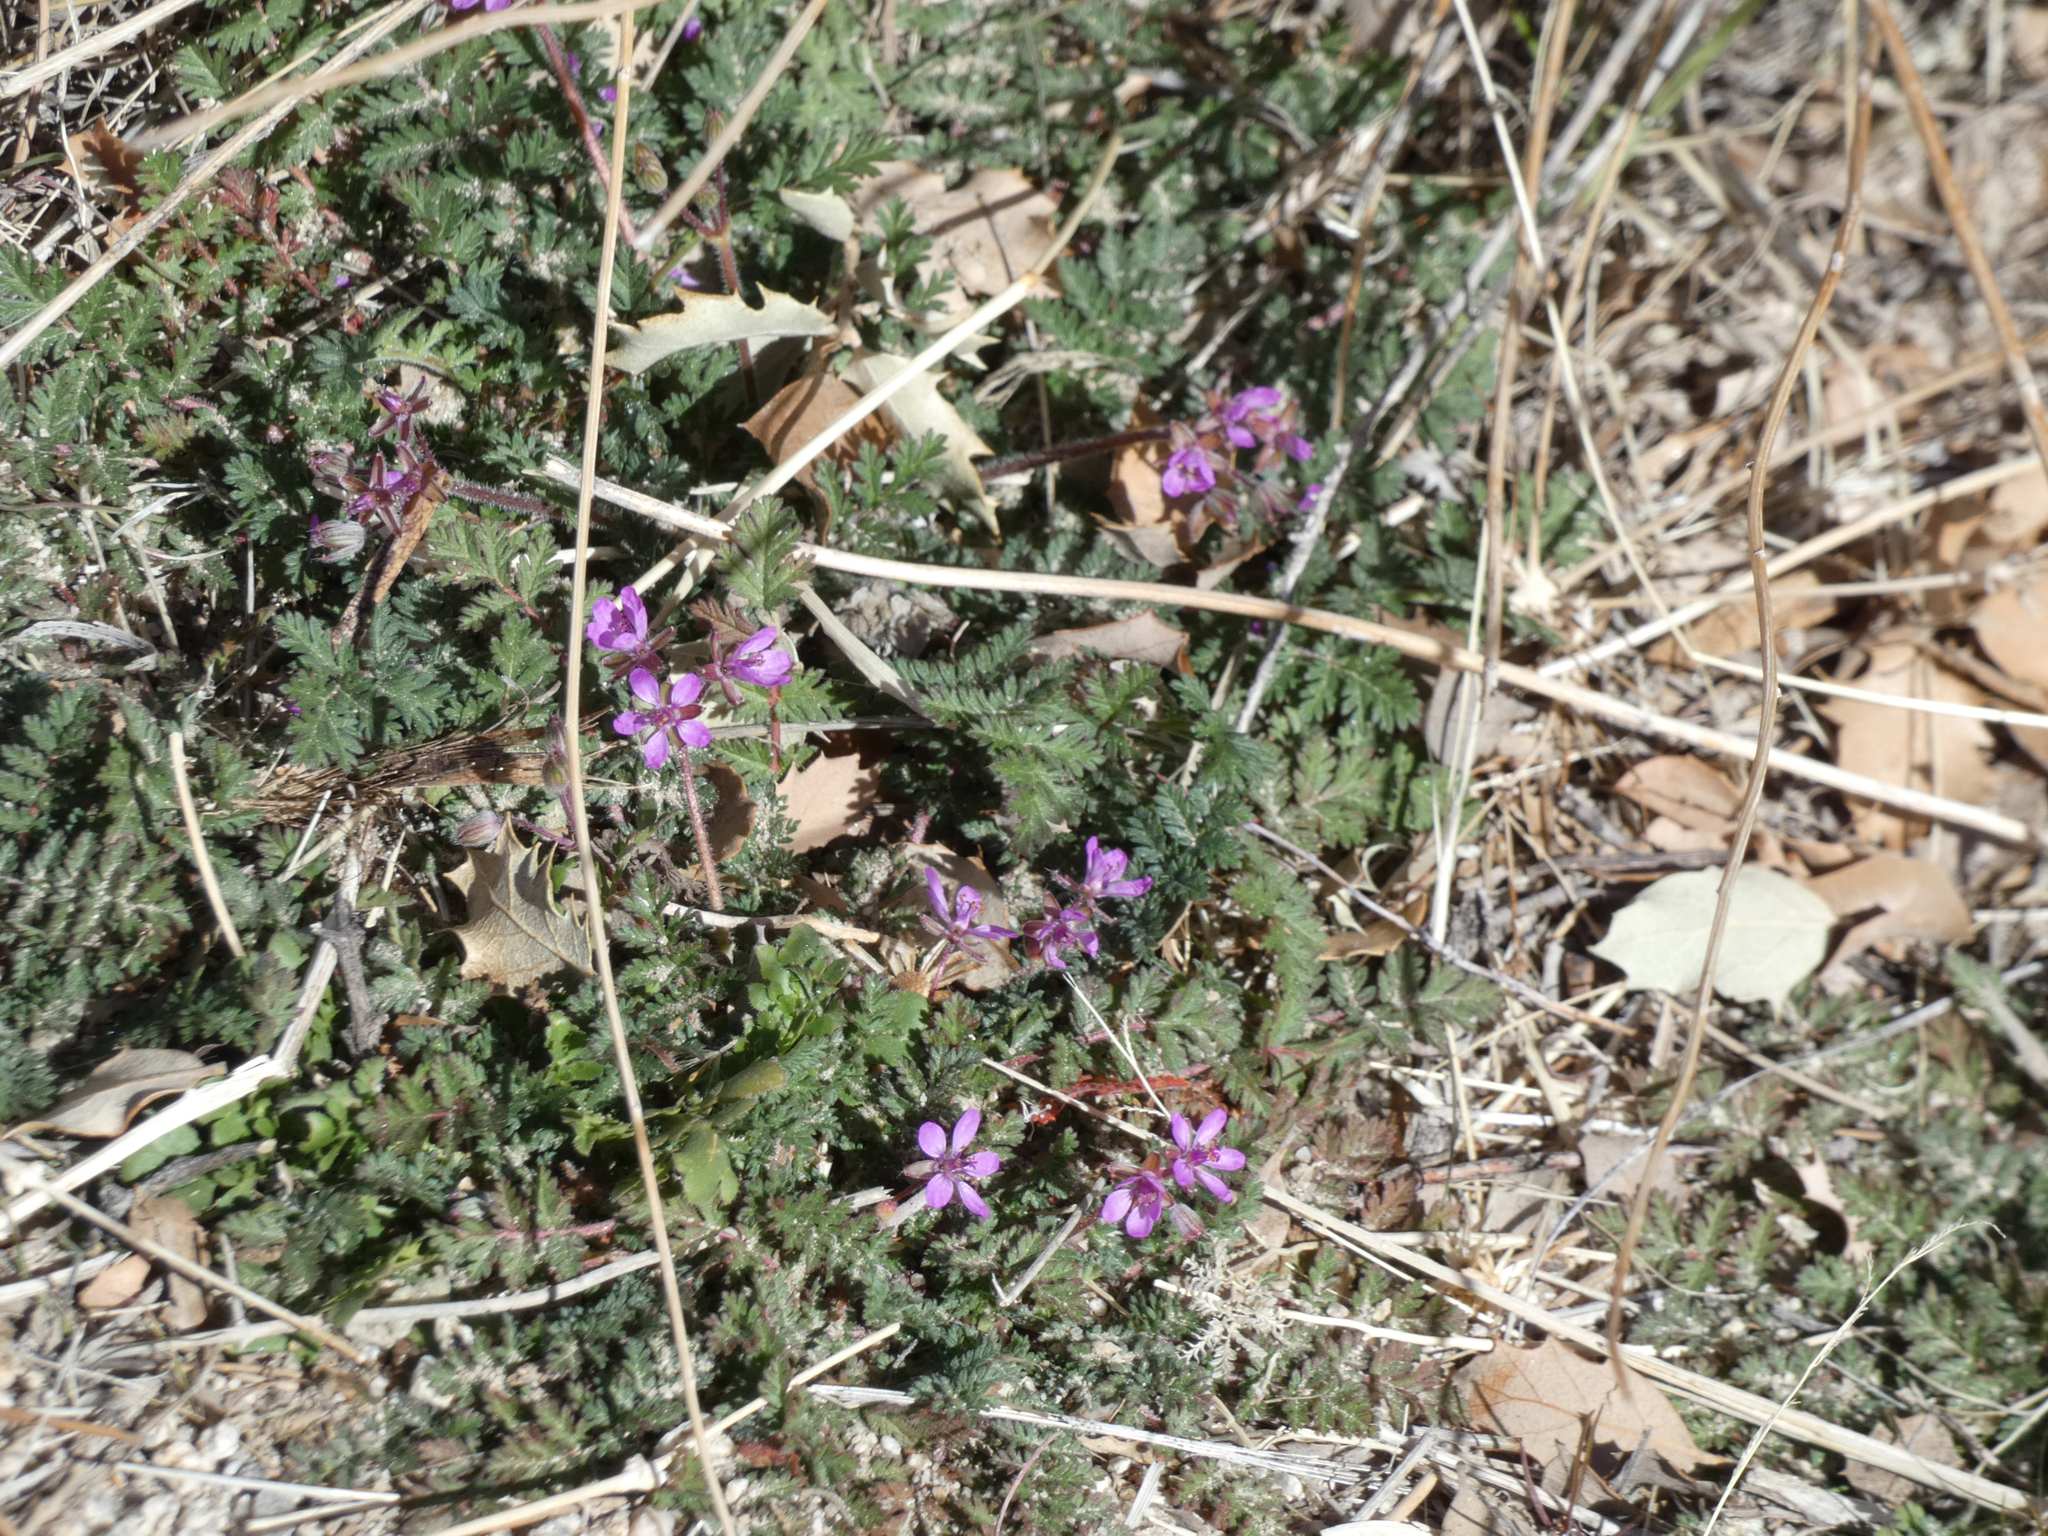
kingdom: Plantae
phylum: Tracheophyta
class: Magnoliopsida
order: Geraniales
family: Geraniaceae
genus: Erodium
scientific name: Erodium cicutarium
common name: Common stork's-bill
